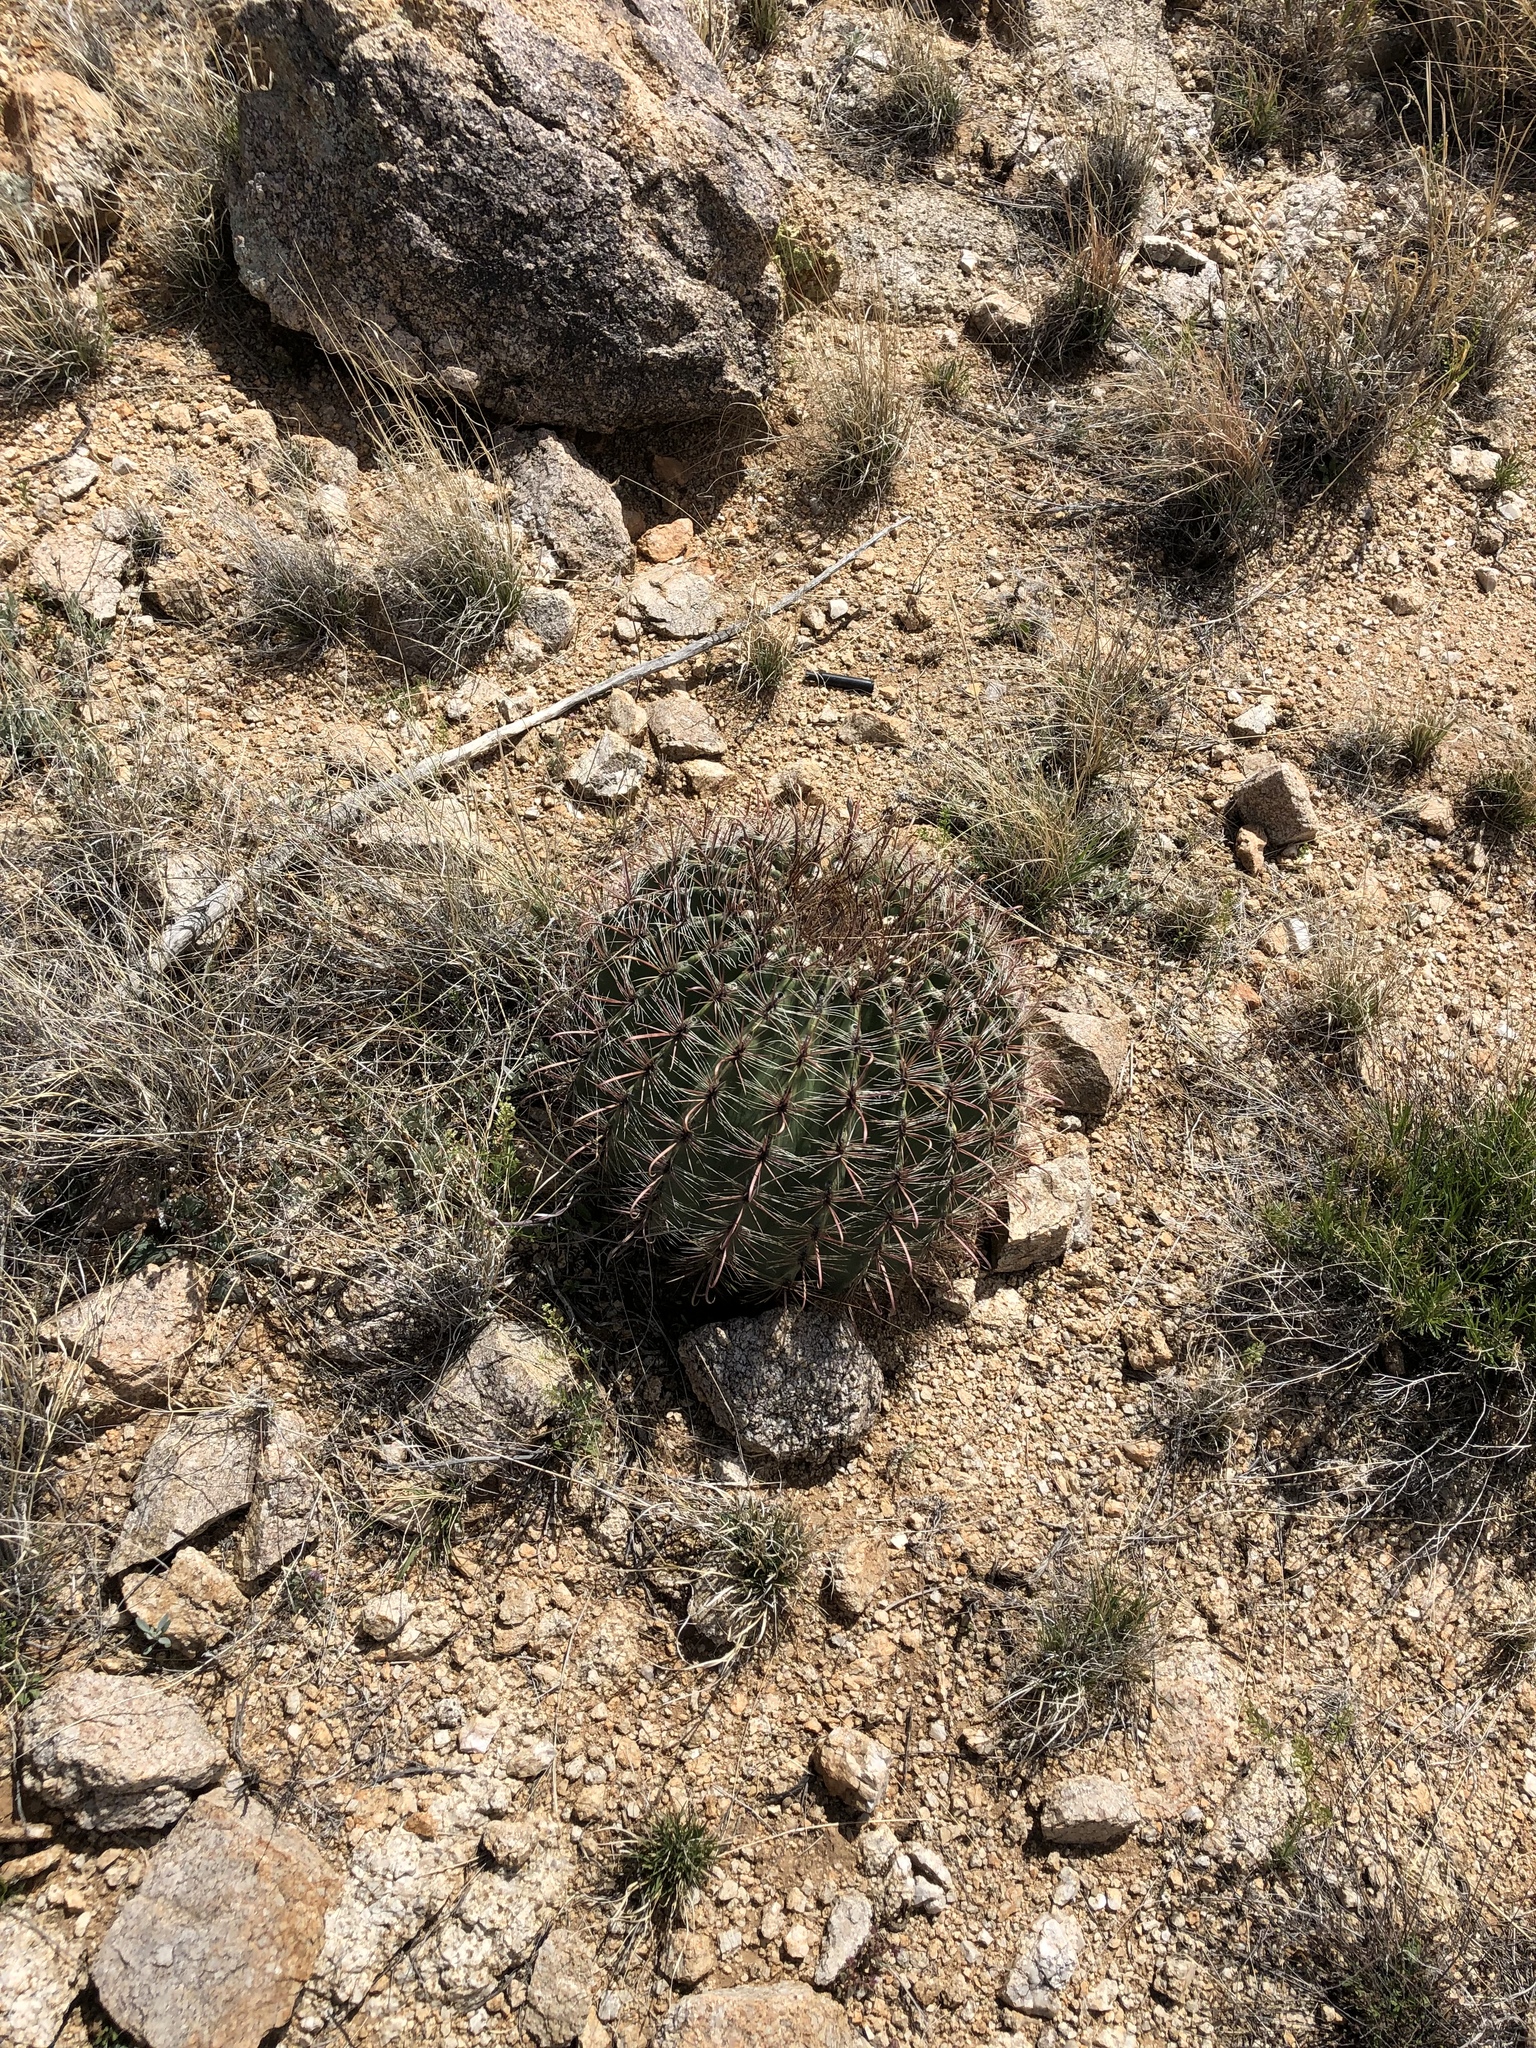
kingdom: Plantae
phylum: Tracheophyta
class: Magnoliopsida
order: Caryophyllales
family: Cactaceae
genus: Ferocactus
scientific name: Ferocactus wislizeni
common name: Candy barrel cactus
